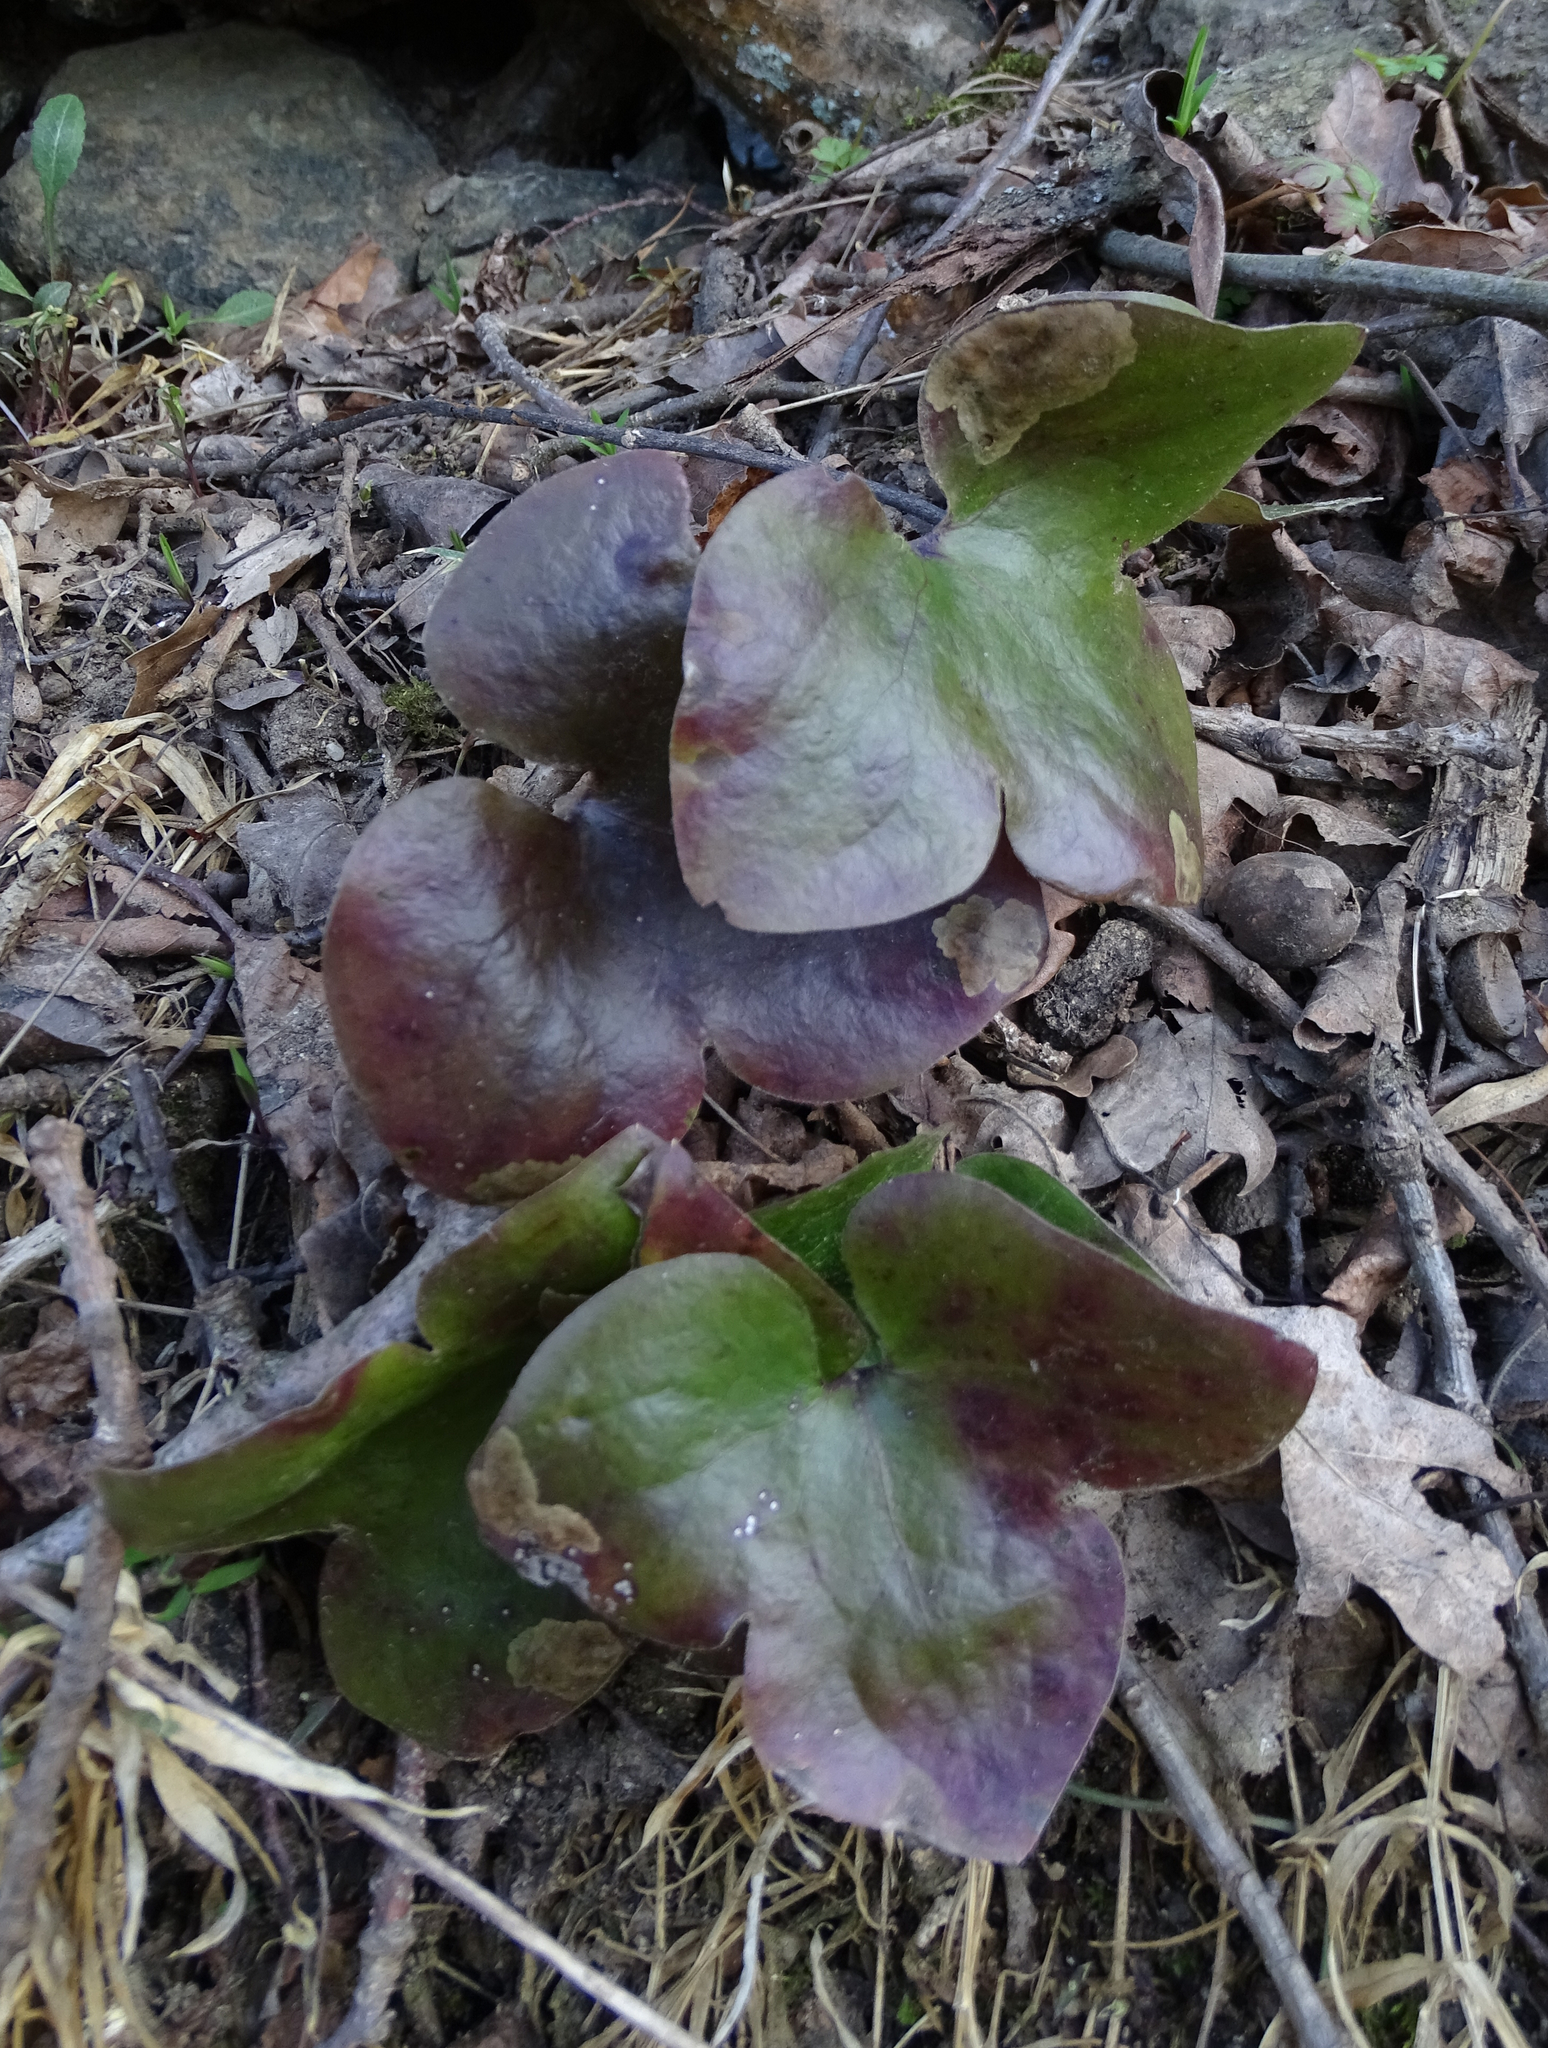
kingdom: Plantae
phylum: Tracheophyta
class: Magnoliopsida
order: Ranunculales
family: Ranunculaceae
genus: Hepatica
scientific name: Hepatica nobilis
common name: Liverleaf
